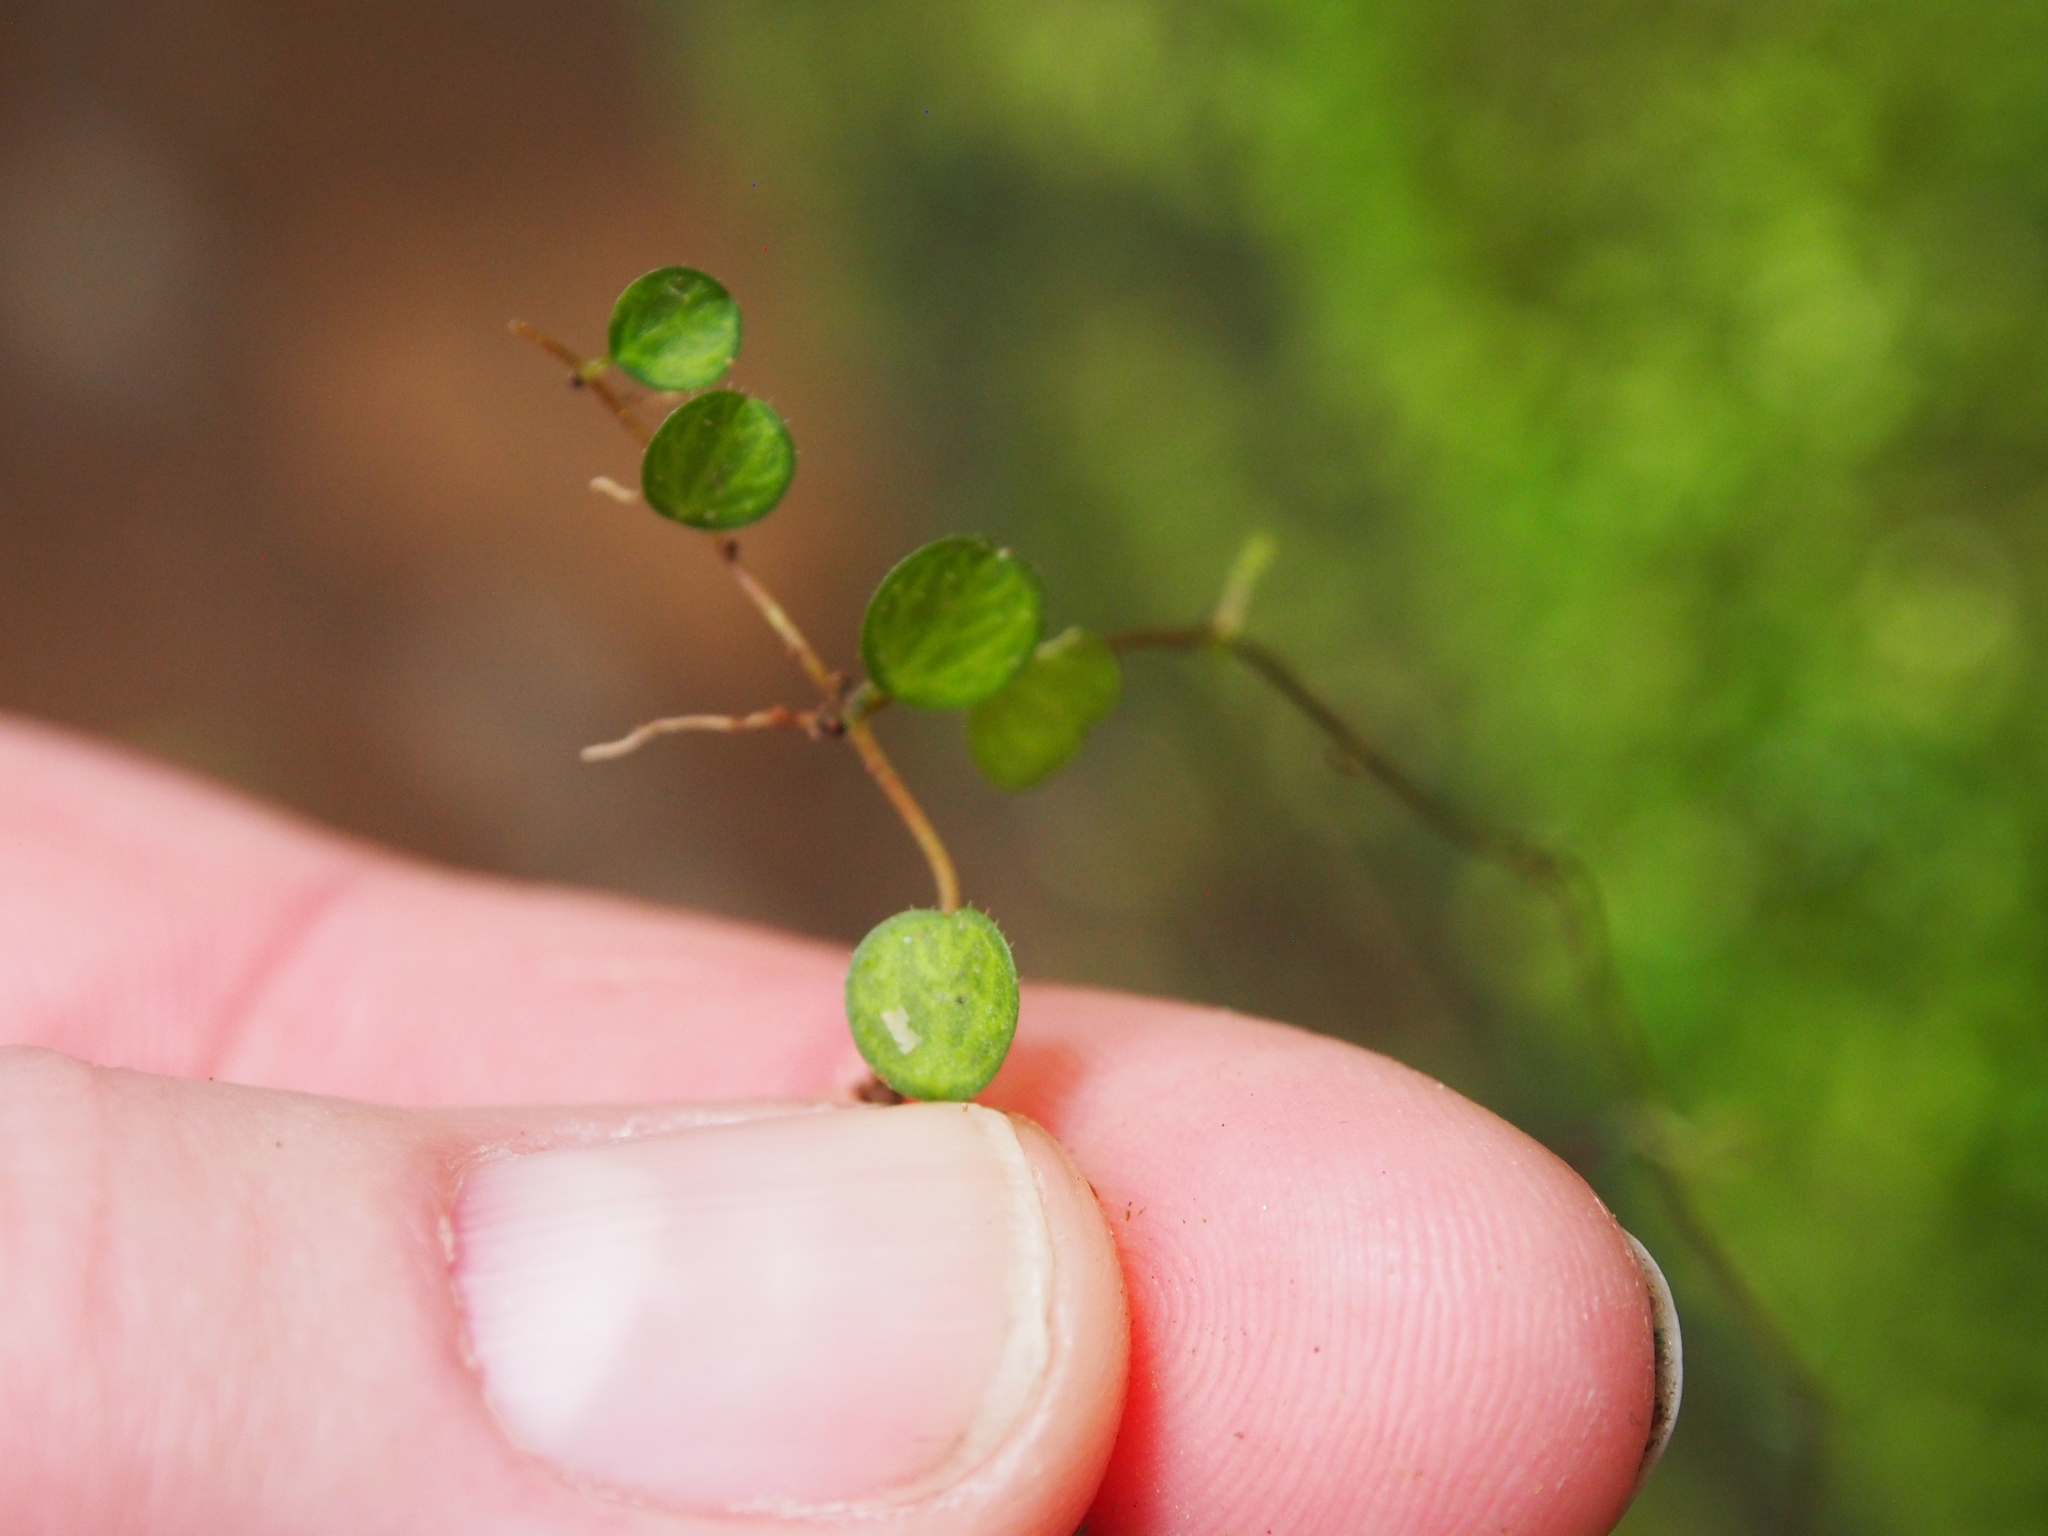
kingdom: Plantae
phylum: Tracheophyta
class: Magnoliopsida
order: Piperales
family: Piperaceae
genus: Peperomia
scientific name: Peperomia emarginella
